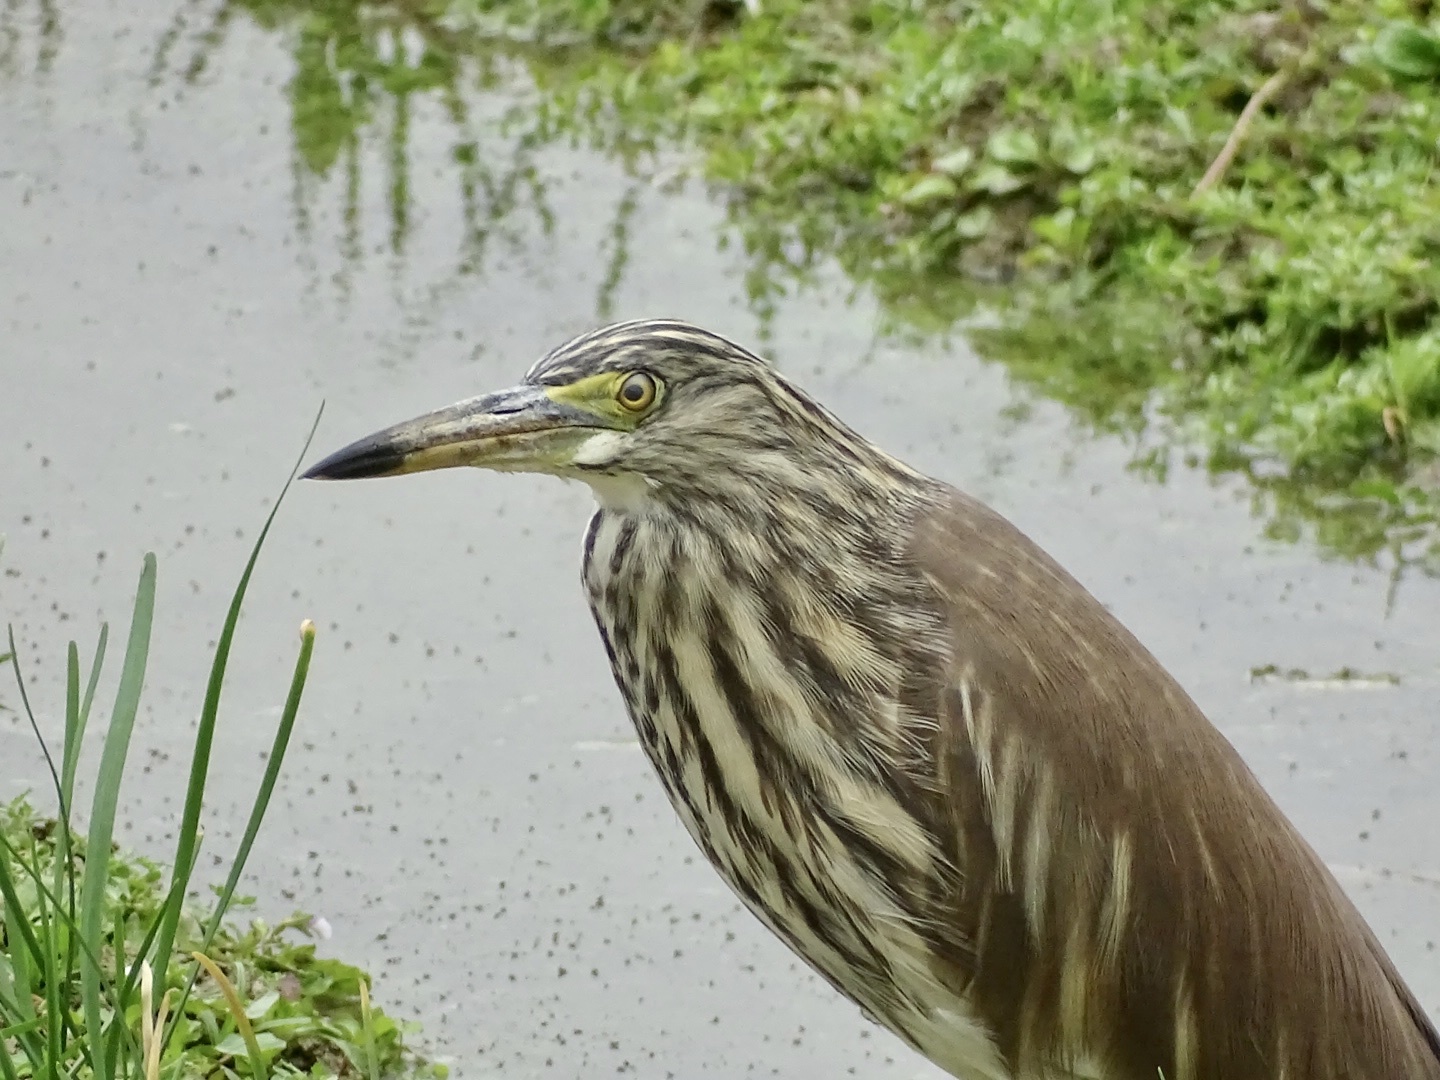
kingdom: Animalia
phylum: Chordata
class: Aves
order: Pelecaniformes
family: Ardeidae
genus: Ardeola
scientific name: Ardeola bacchus
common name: Chinese pond heron
